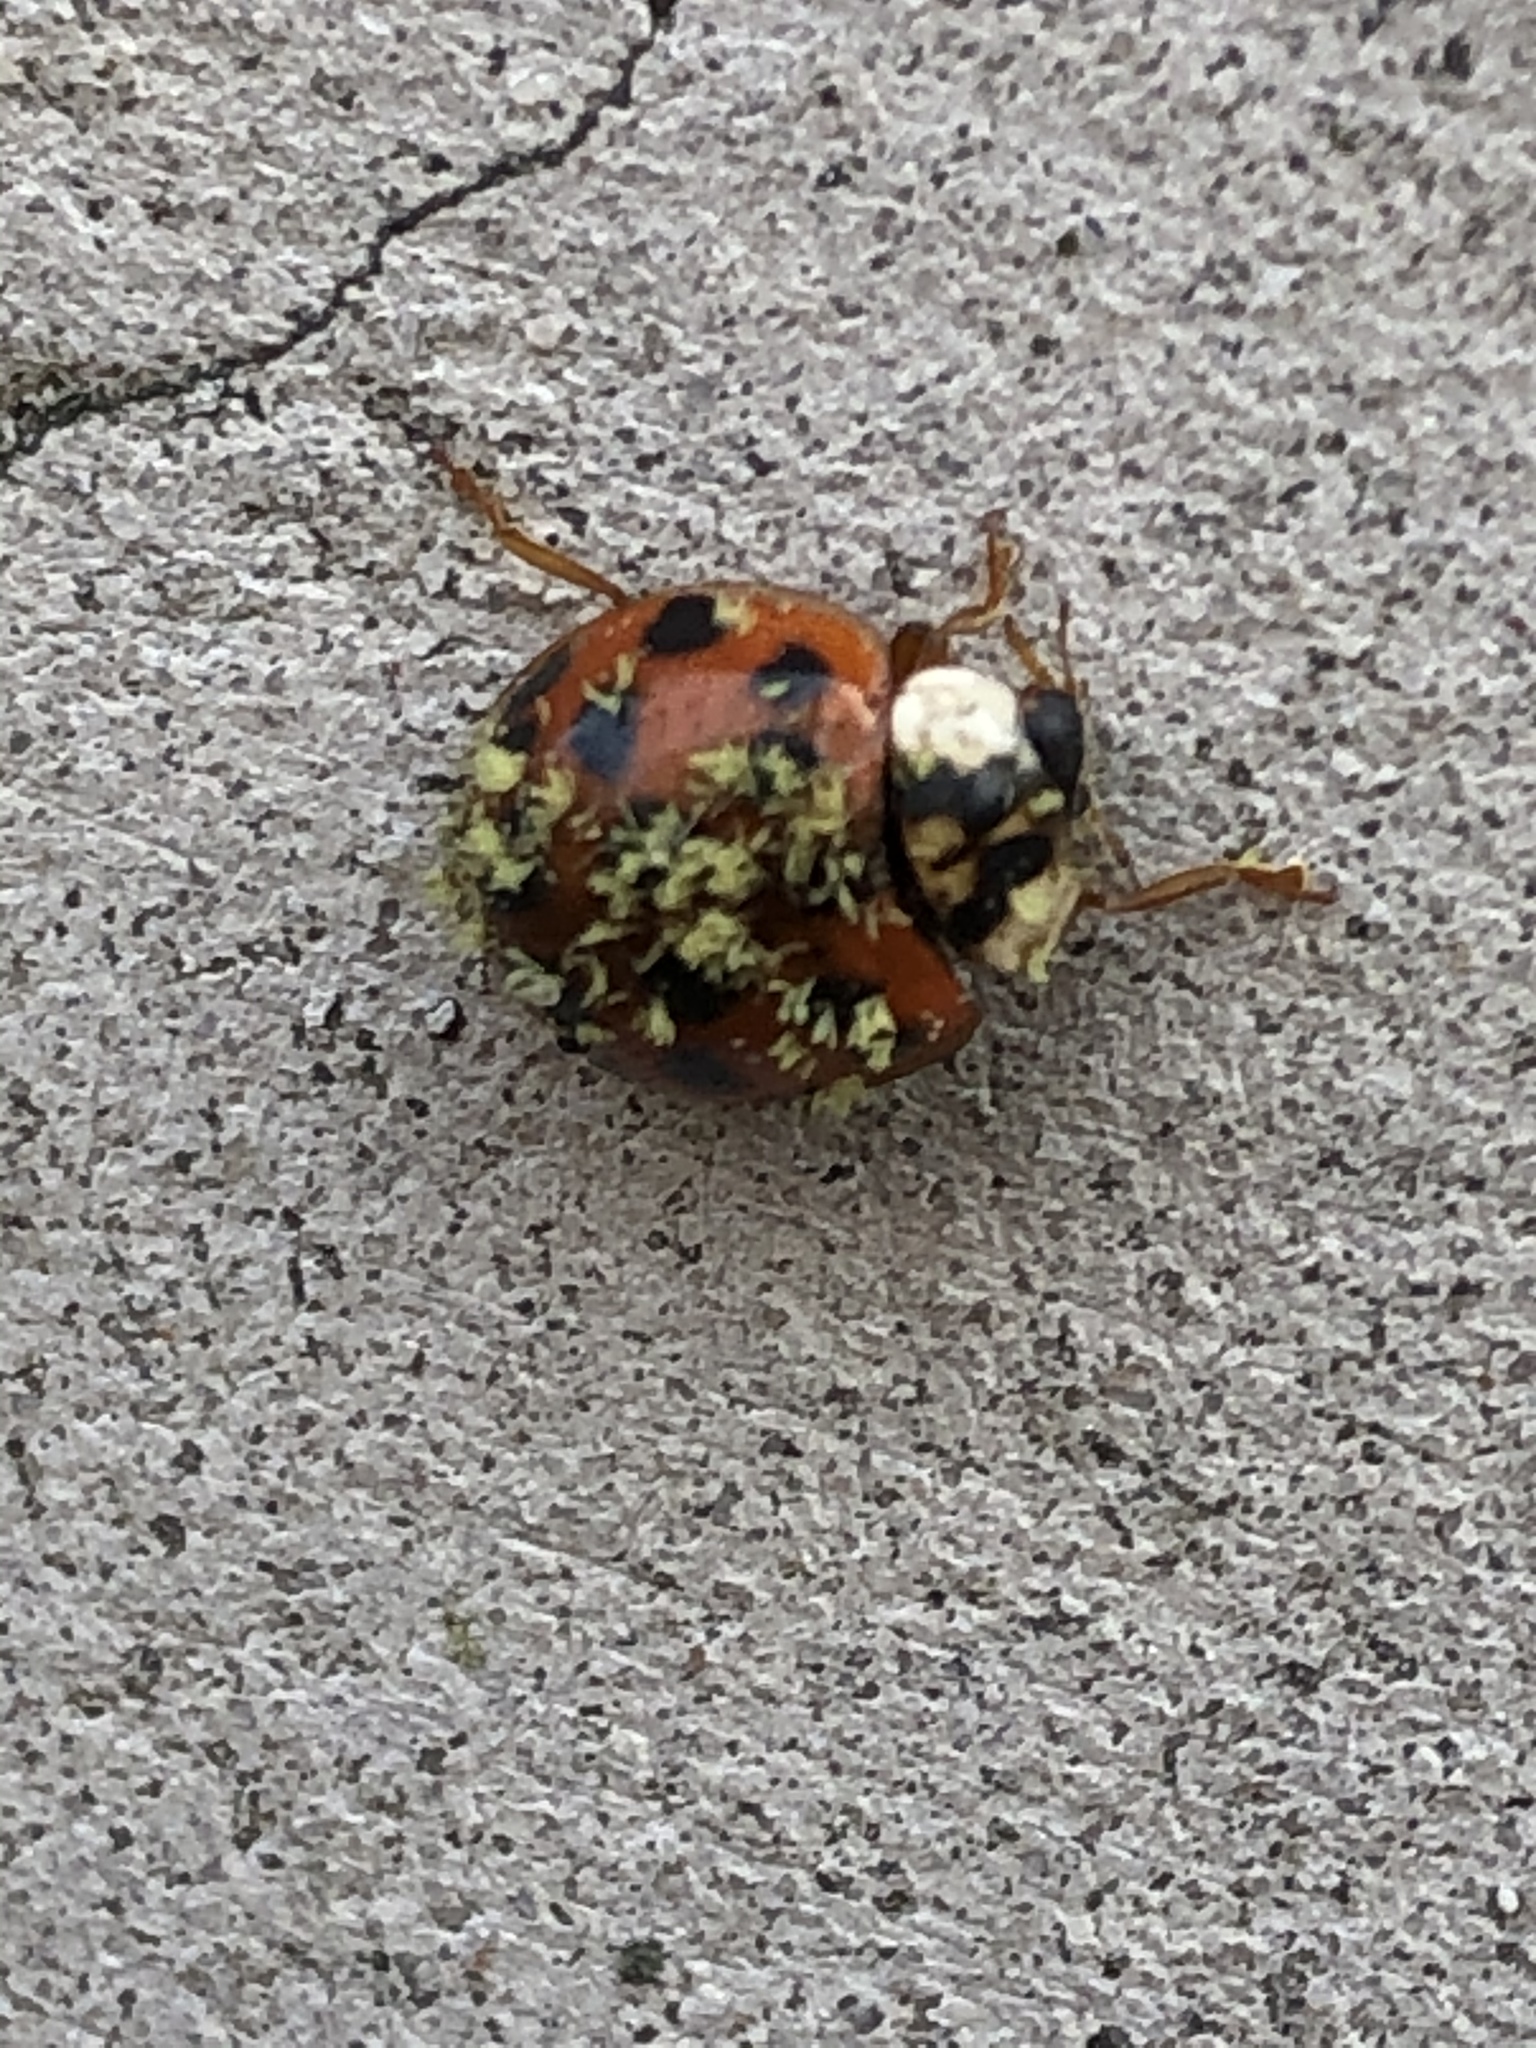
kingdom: Fungi
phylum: Ascomycota
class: Laboulbeniomycetes
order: Laboulbeniales
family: Laboulbeniaceae
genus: Hesperomyces
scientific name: Hesperomyces harmoniae
